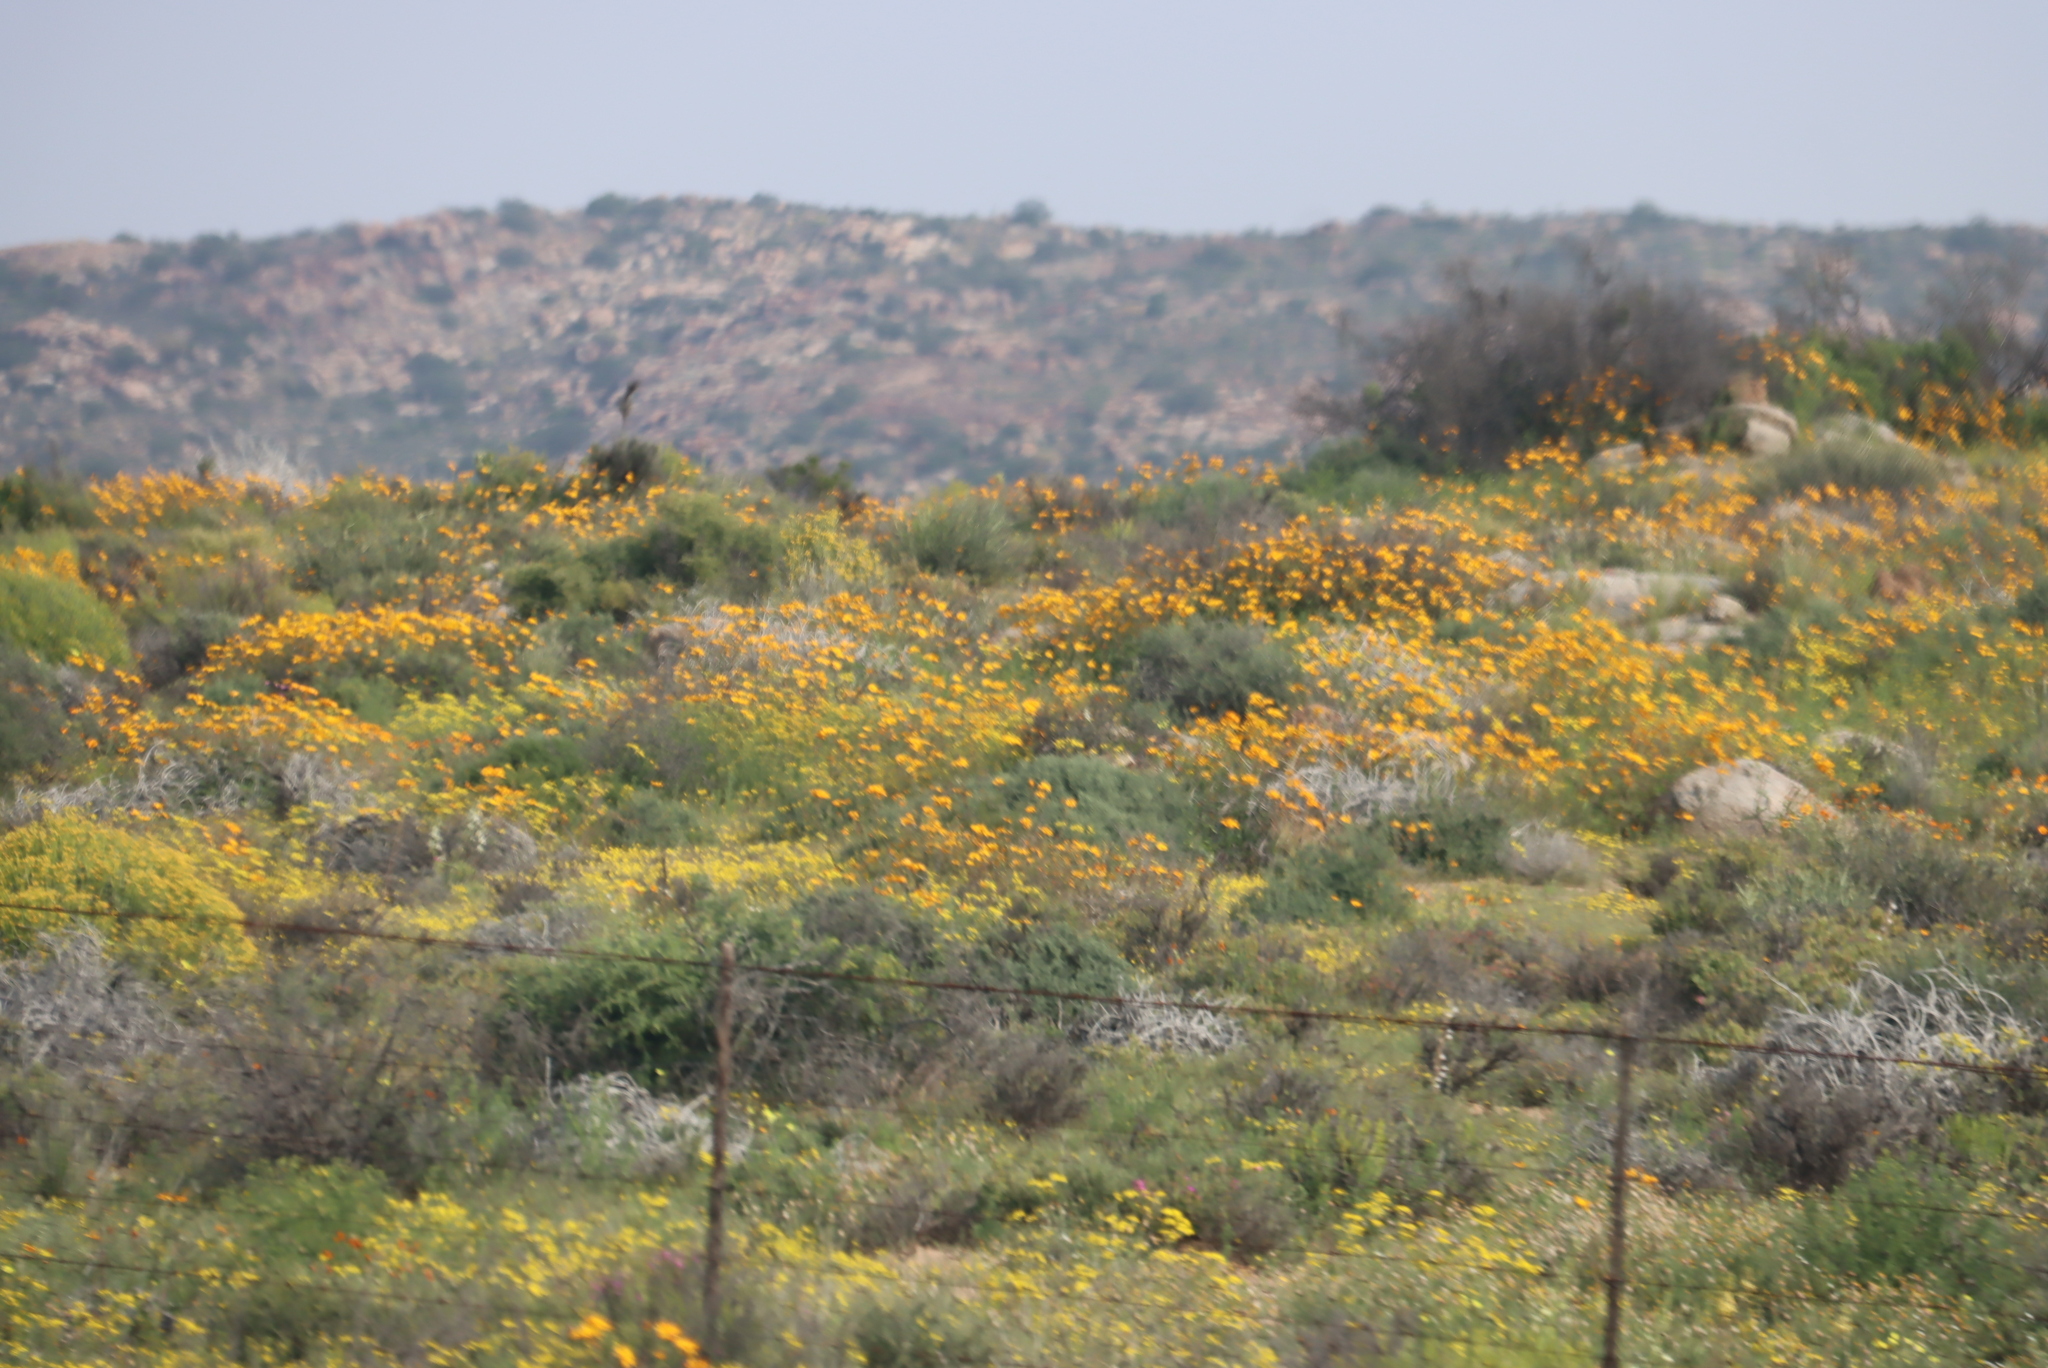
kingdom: Plantae
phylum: Tracheophyta
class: Magnoliopsida
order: Asterales
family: Asteraceae
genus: Dimorphotheca
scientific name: Dimorphotheca sinuata
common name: Glandular cape marigold
